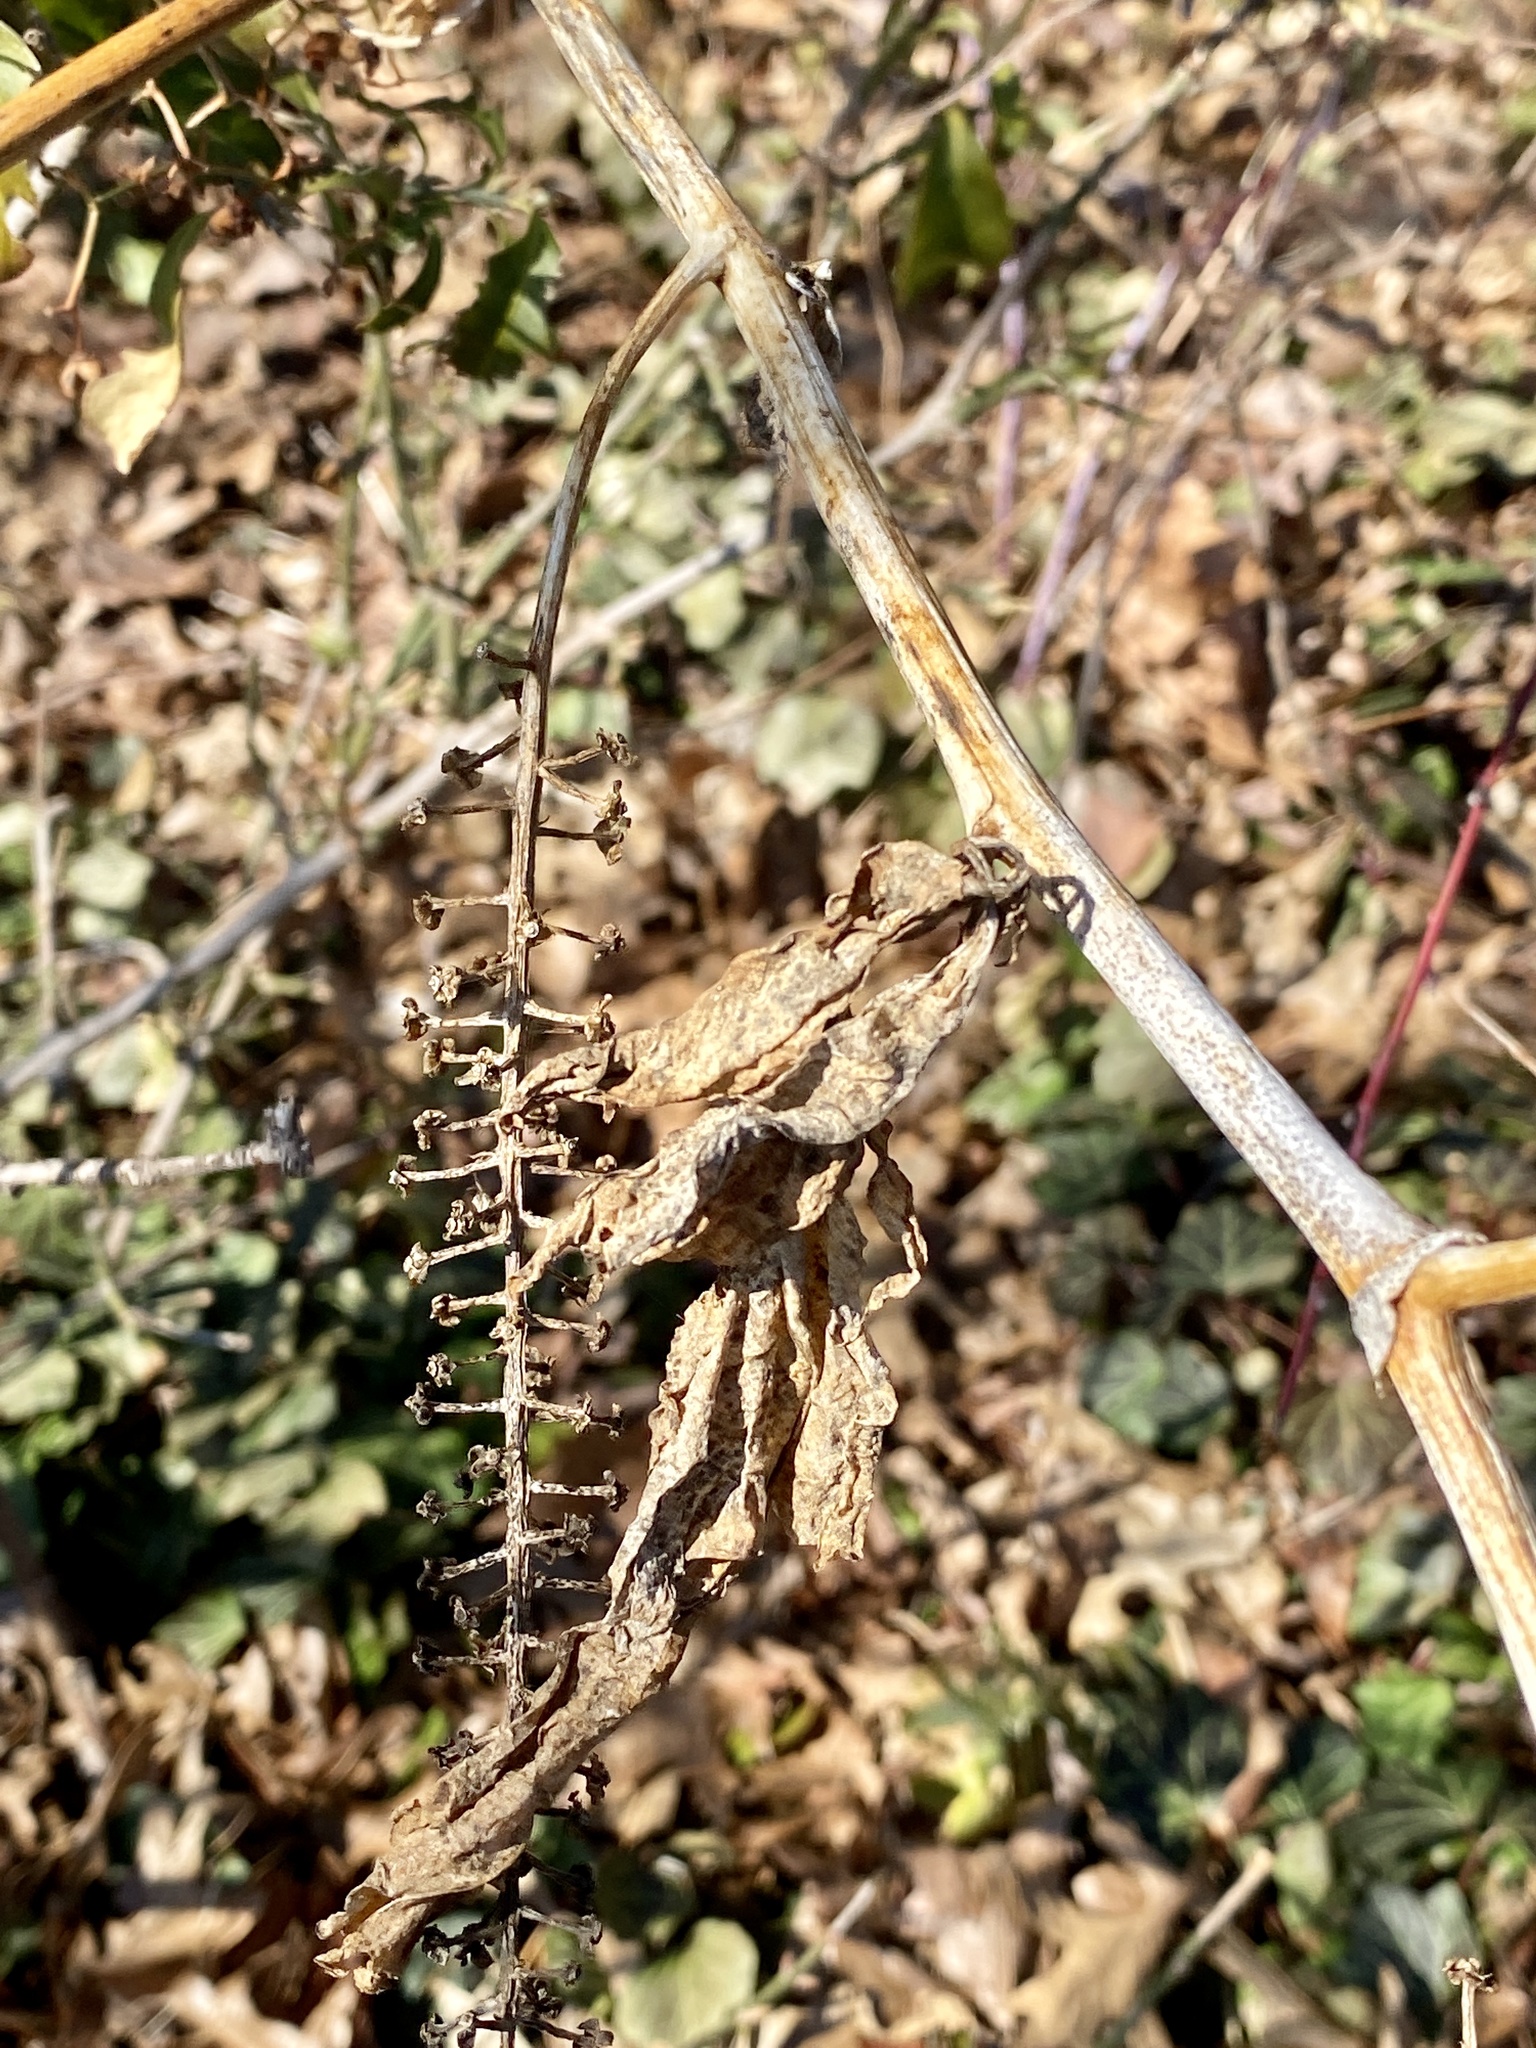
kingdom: Plantae
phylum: Tracheophyta
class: Magnoliopsida
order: Caryophyllales
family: Phytolaccaceae
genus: Phytolacca
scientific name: Phytolacca americana
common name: American pokeweed
